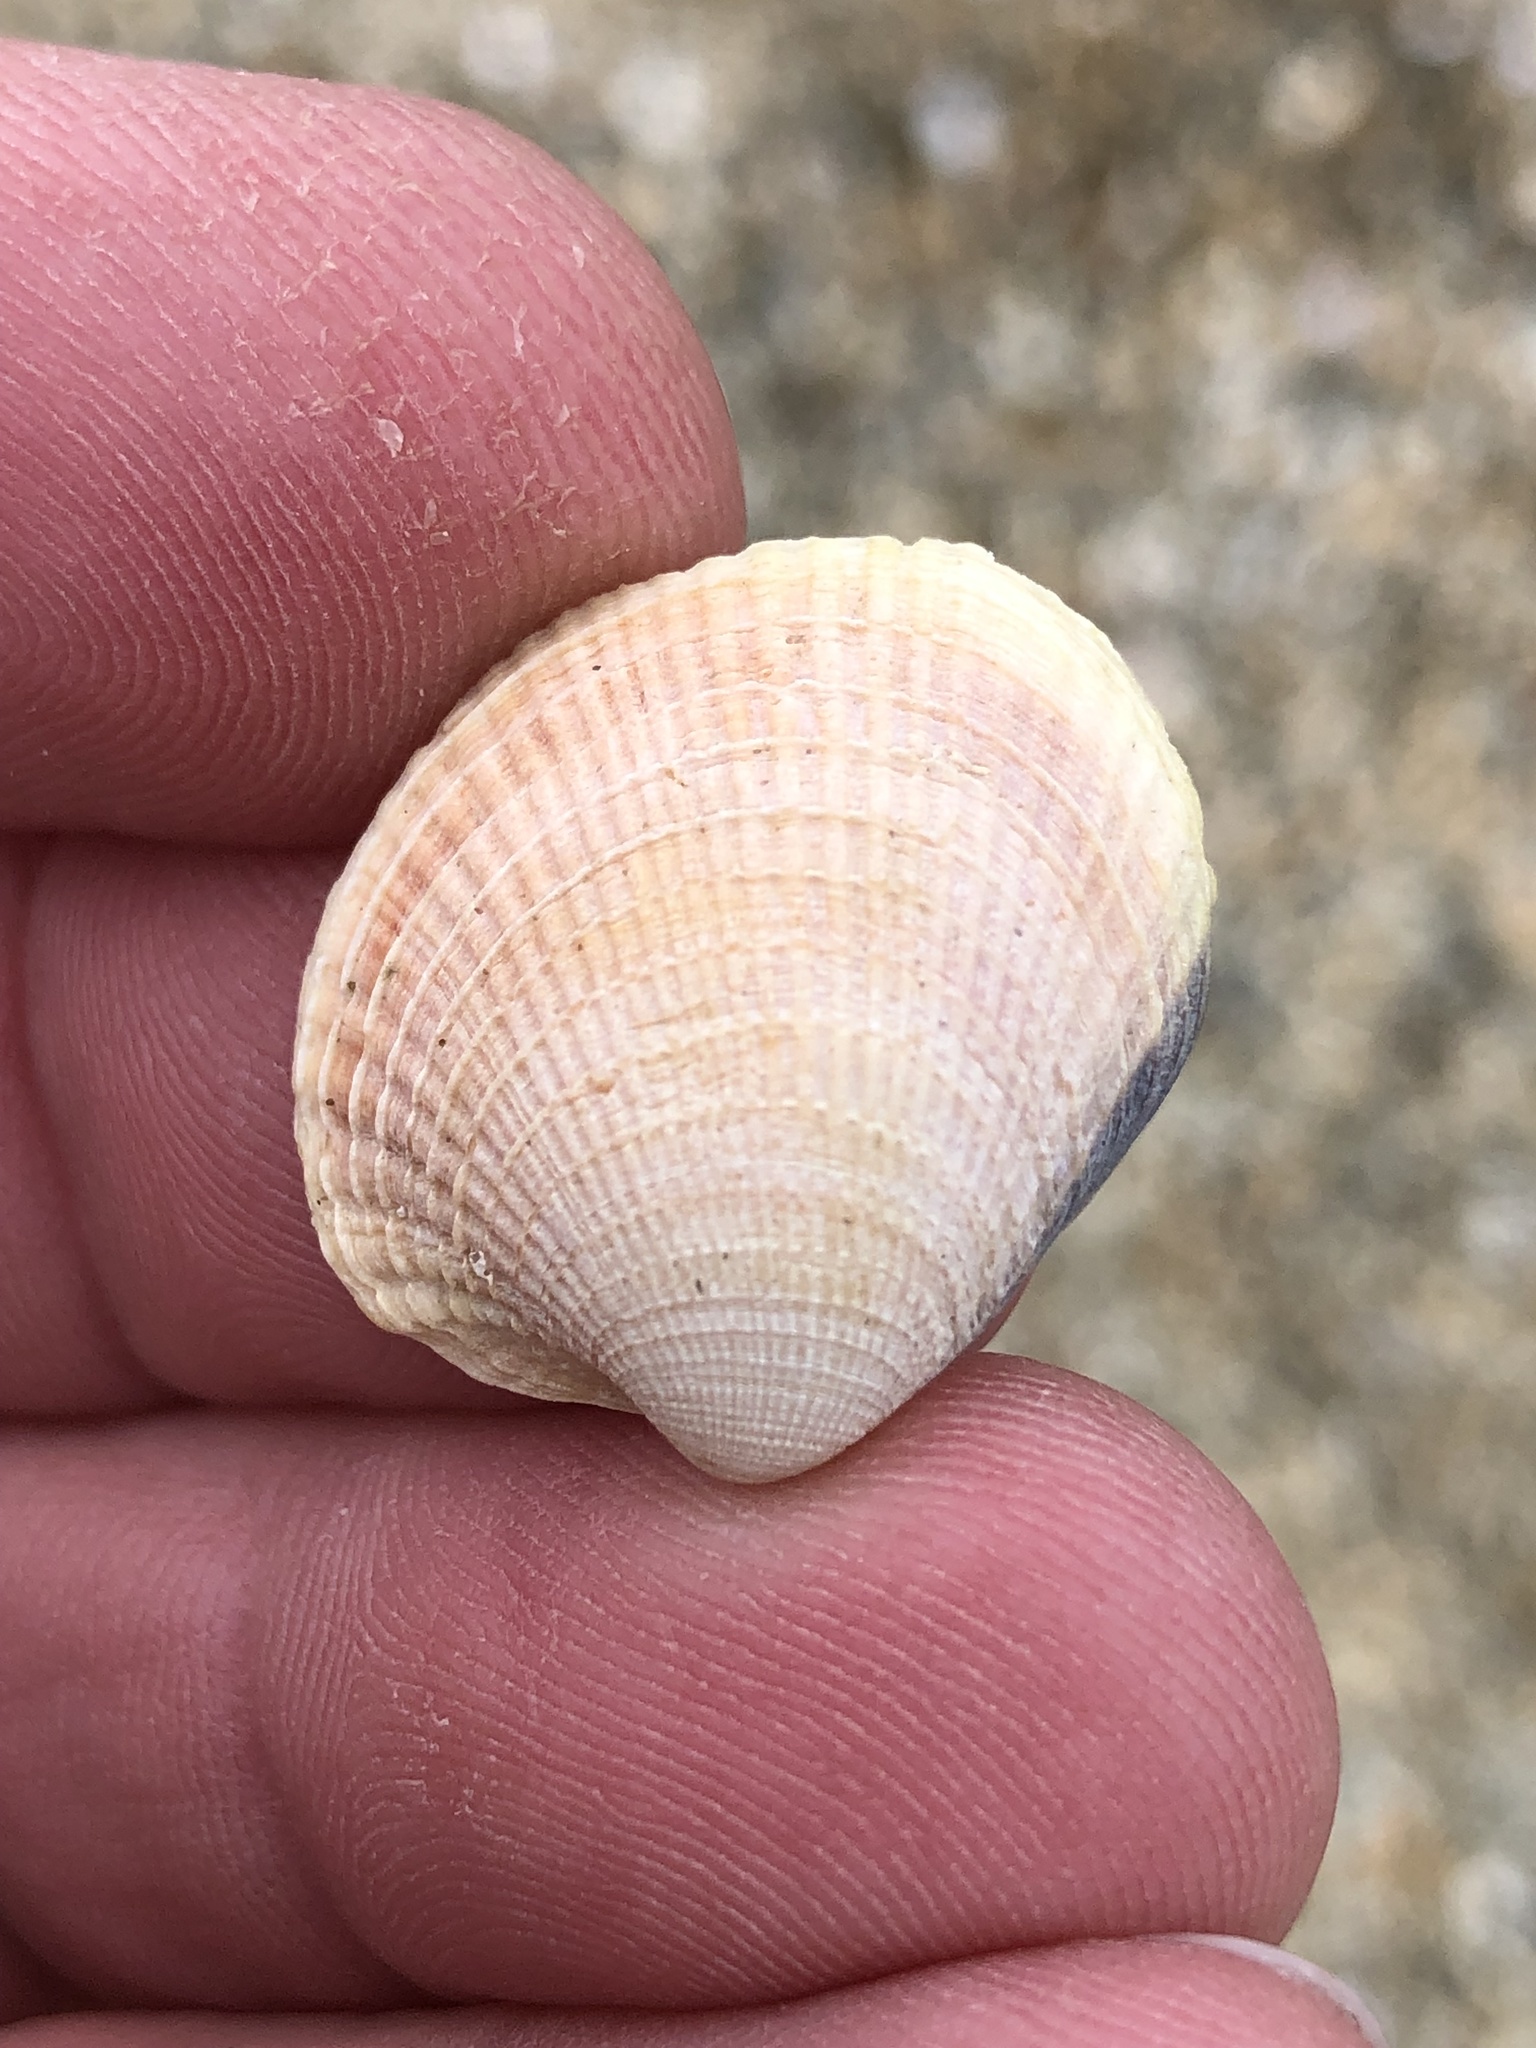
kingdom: Animalia
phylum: Mollusca
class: Bivalvia
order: Venerida
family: Veneridae
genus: Austrovenus
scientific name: Austrovenus stutchburyi
